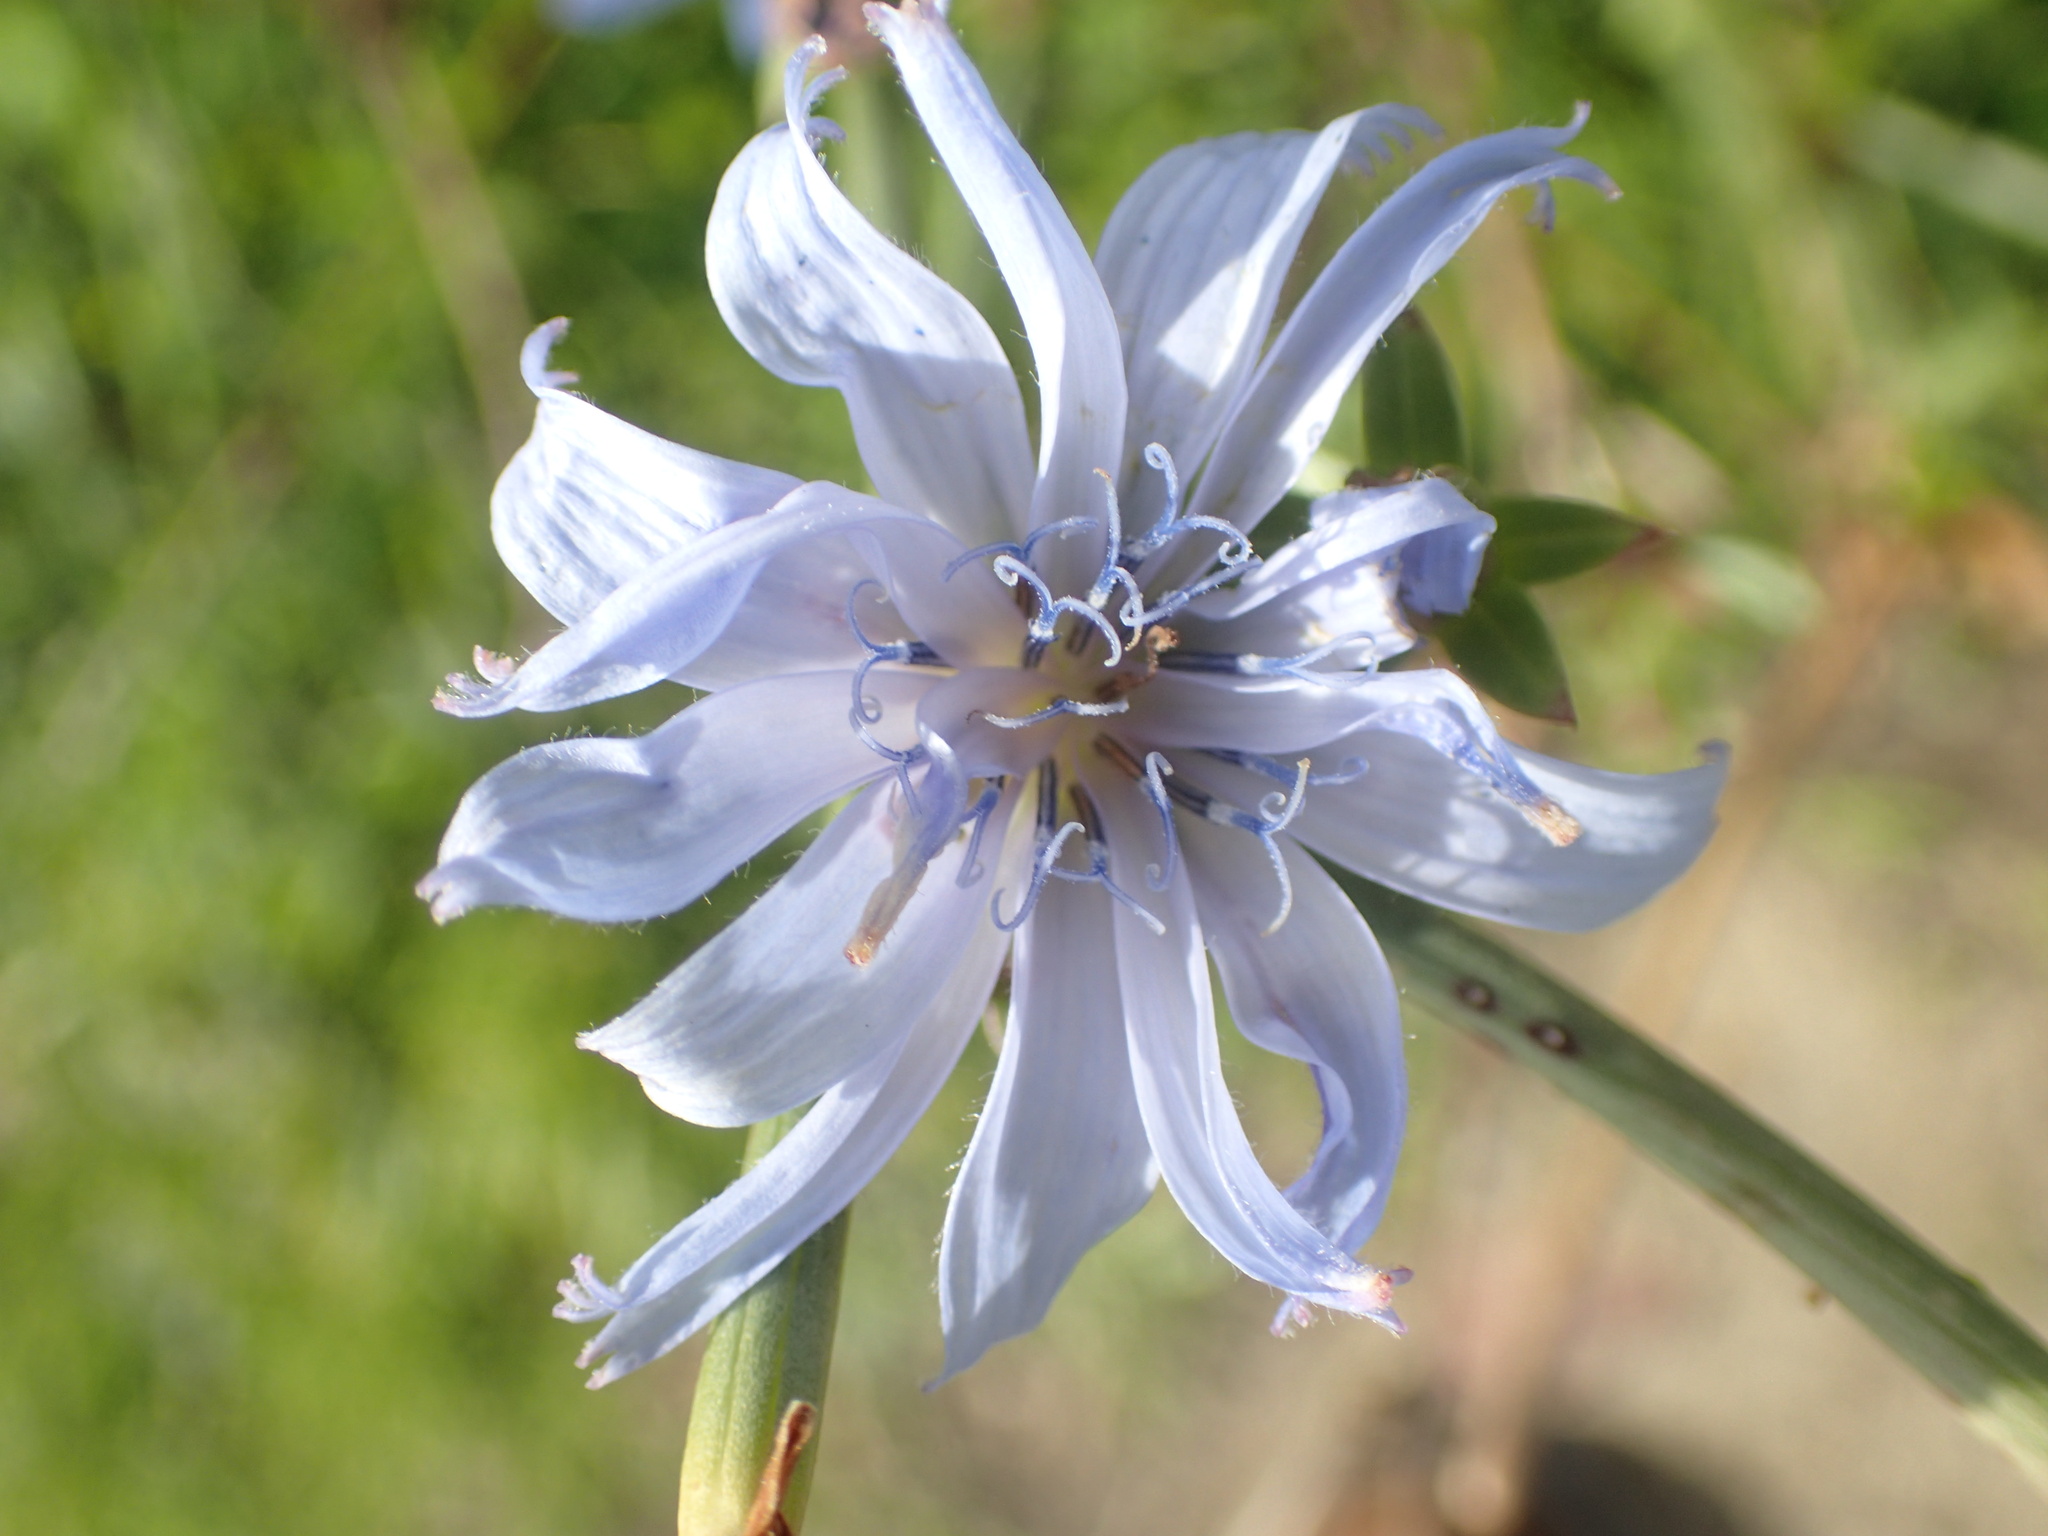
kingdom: Plantae
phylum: Tracheophyta
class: Magnoliopsida
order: Asterales
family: Asteraceae
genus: Cichorium
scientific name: Cichorium intybus
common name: Chicory
